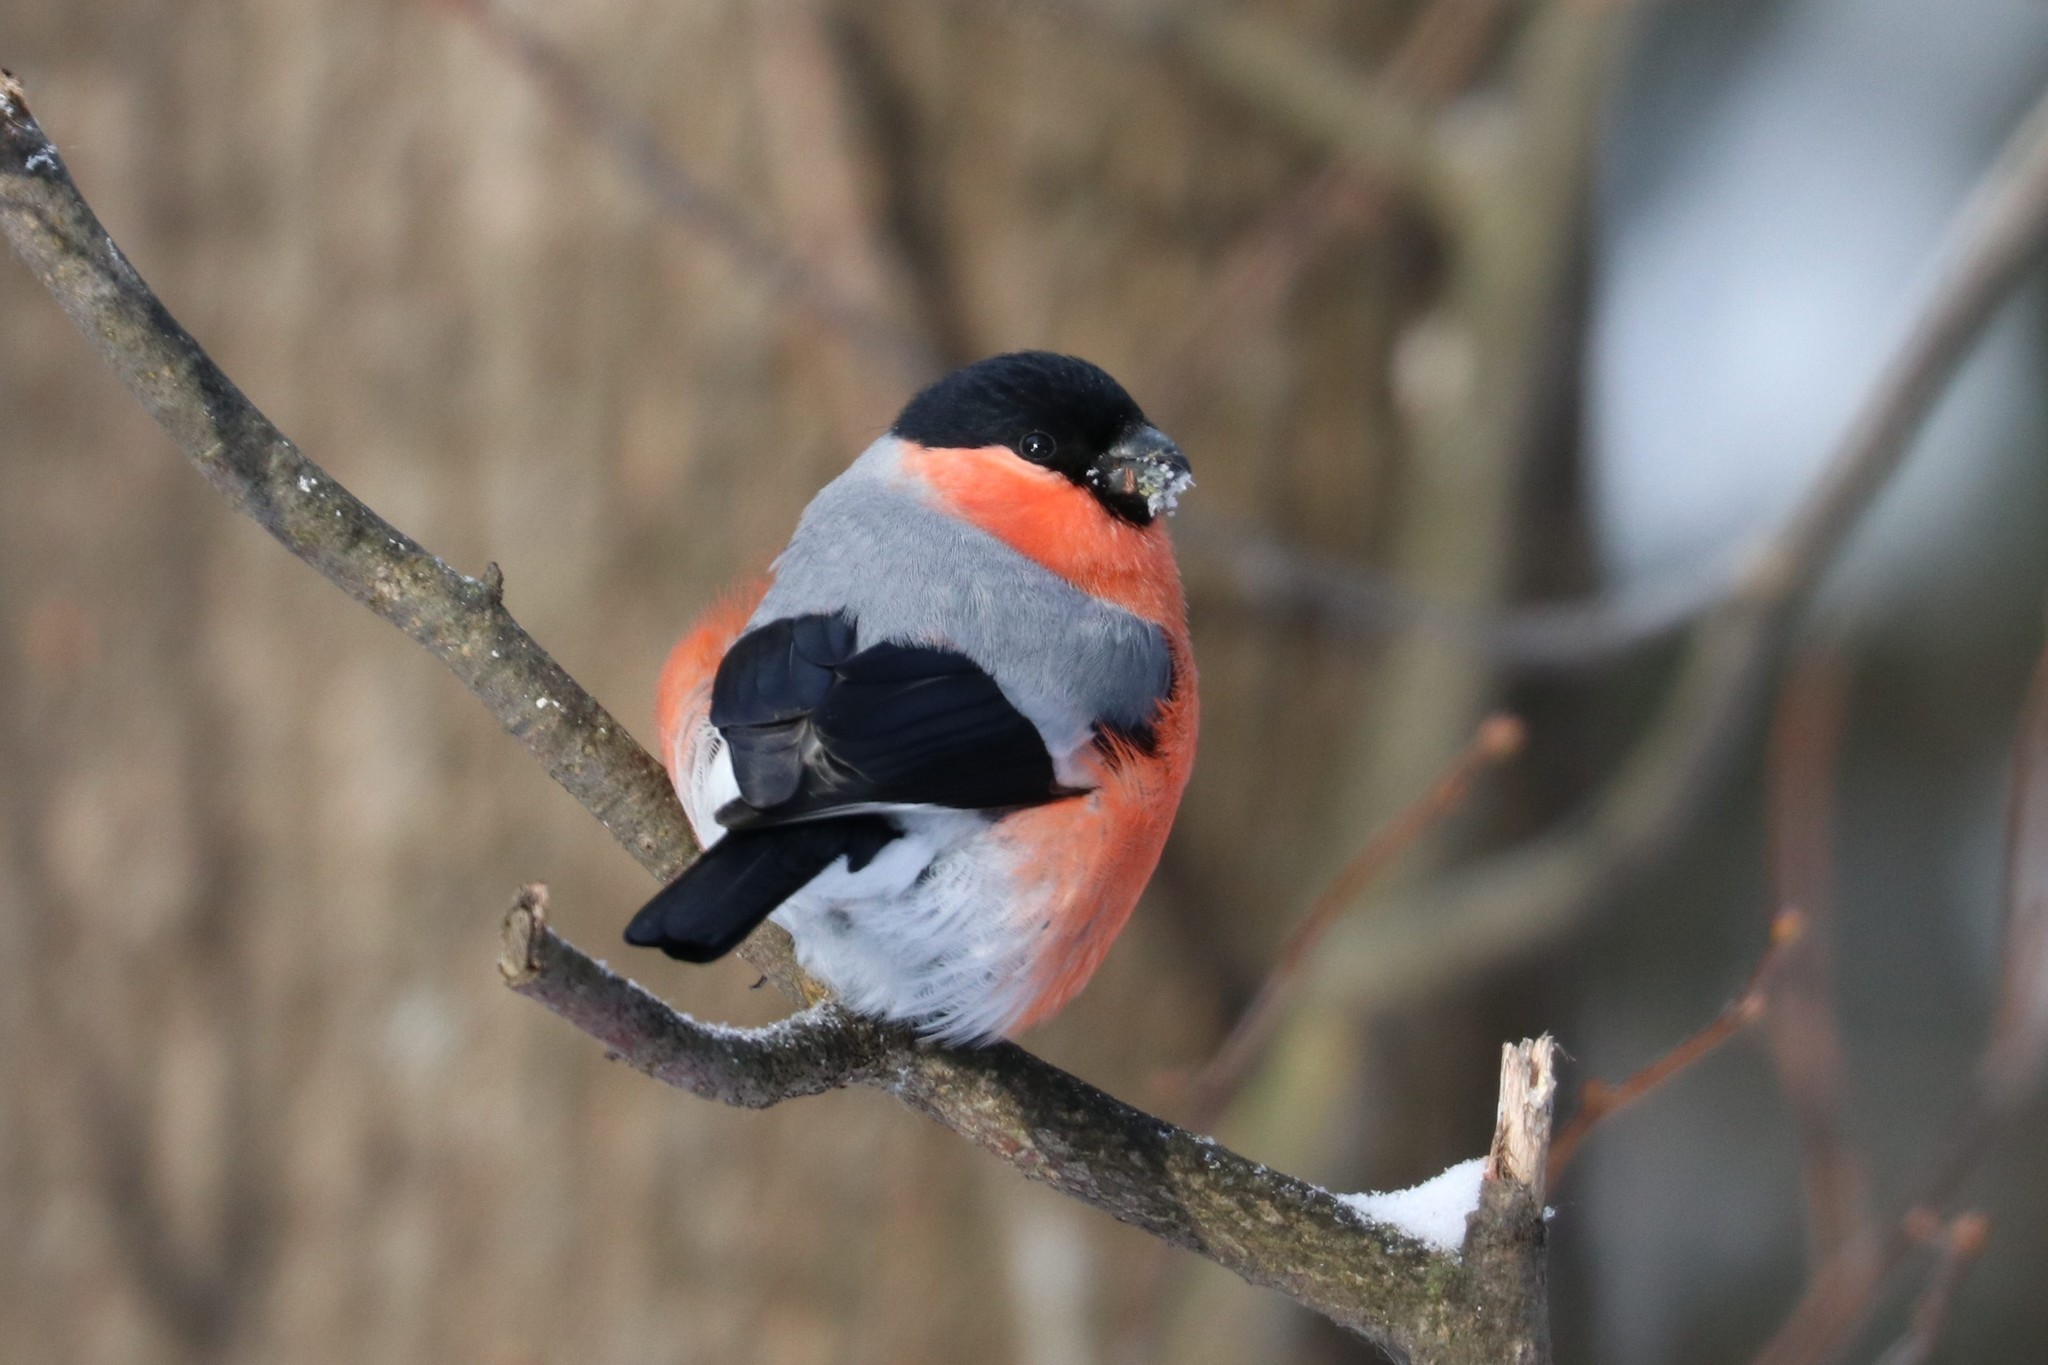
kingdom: Animalia
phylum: Chordata
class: Aves
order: Passeriformes
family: Fringillidae
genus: Pyrrhula
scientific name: Pyrrhula pyrrhula
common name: Eurasian bullfinch
